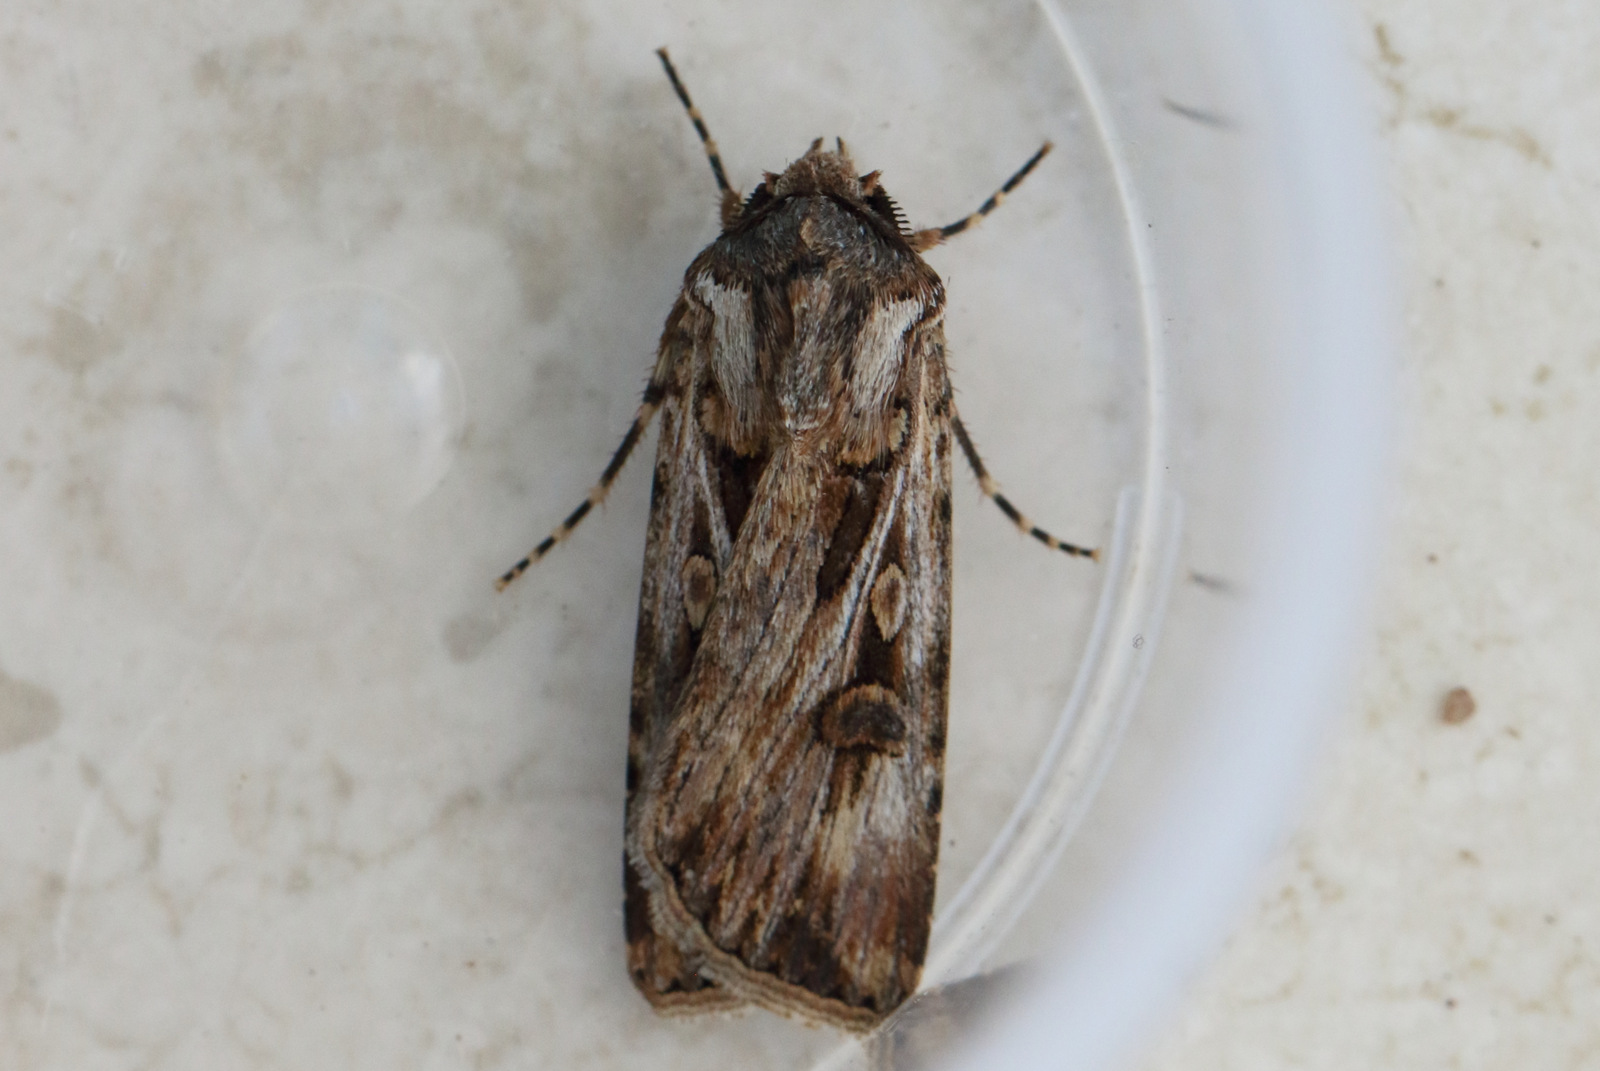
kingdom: Animalia
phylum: Arthropoda
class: Insecta
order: Lepidoptera
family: Noctuidae
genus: Agrotis
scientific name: Agrotis munda
